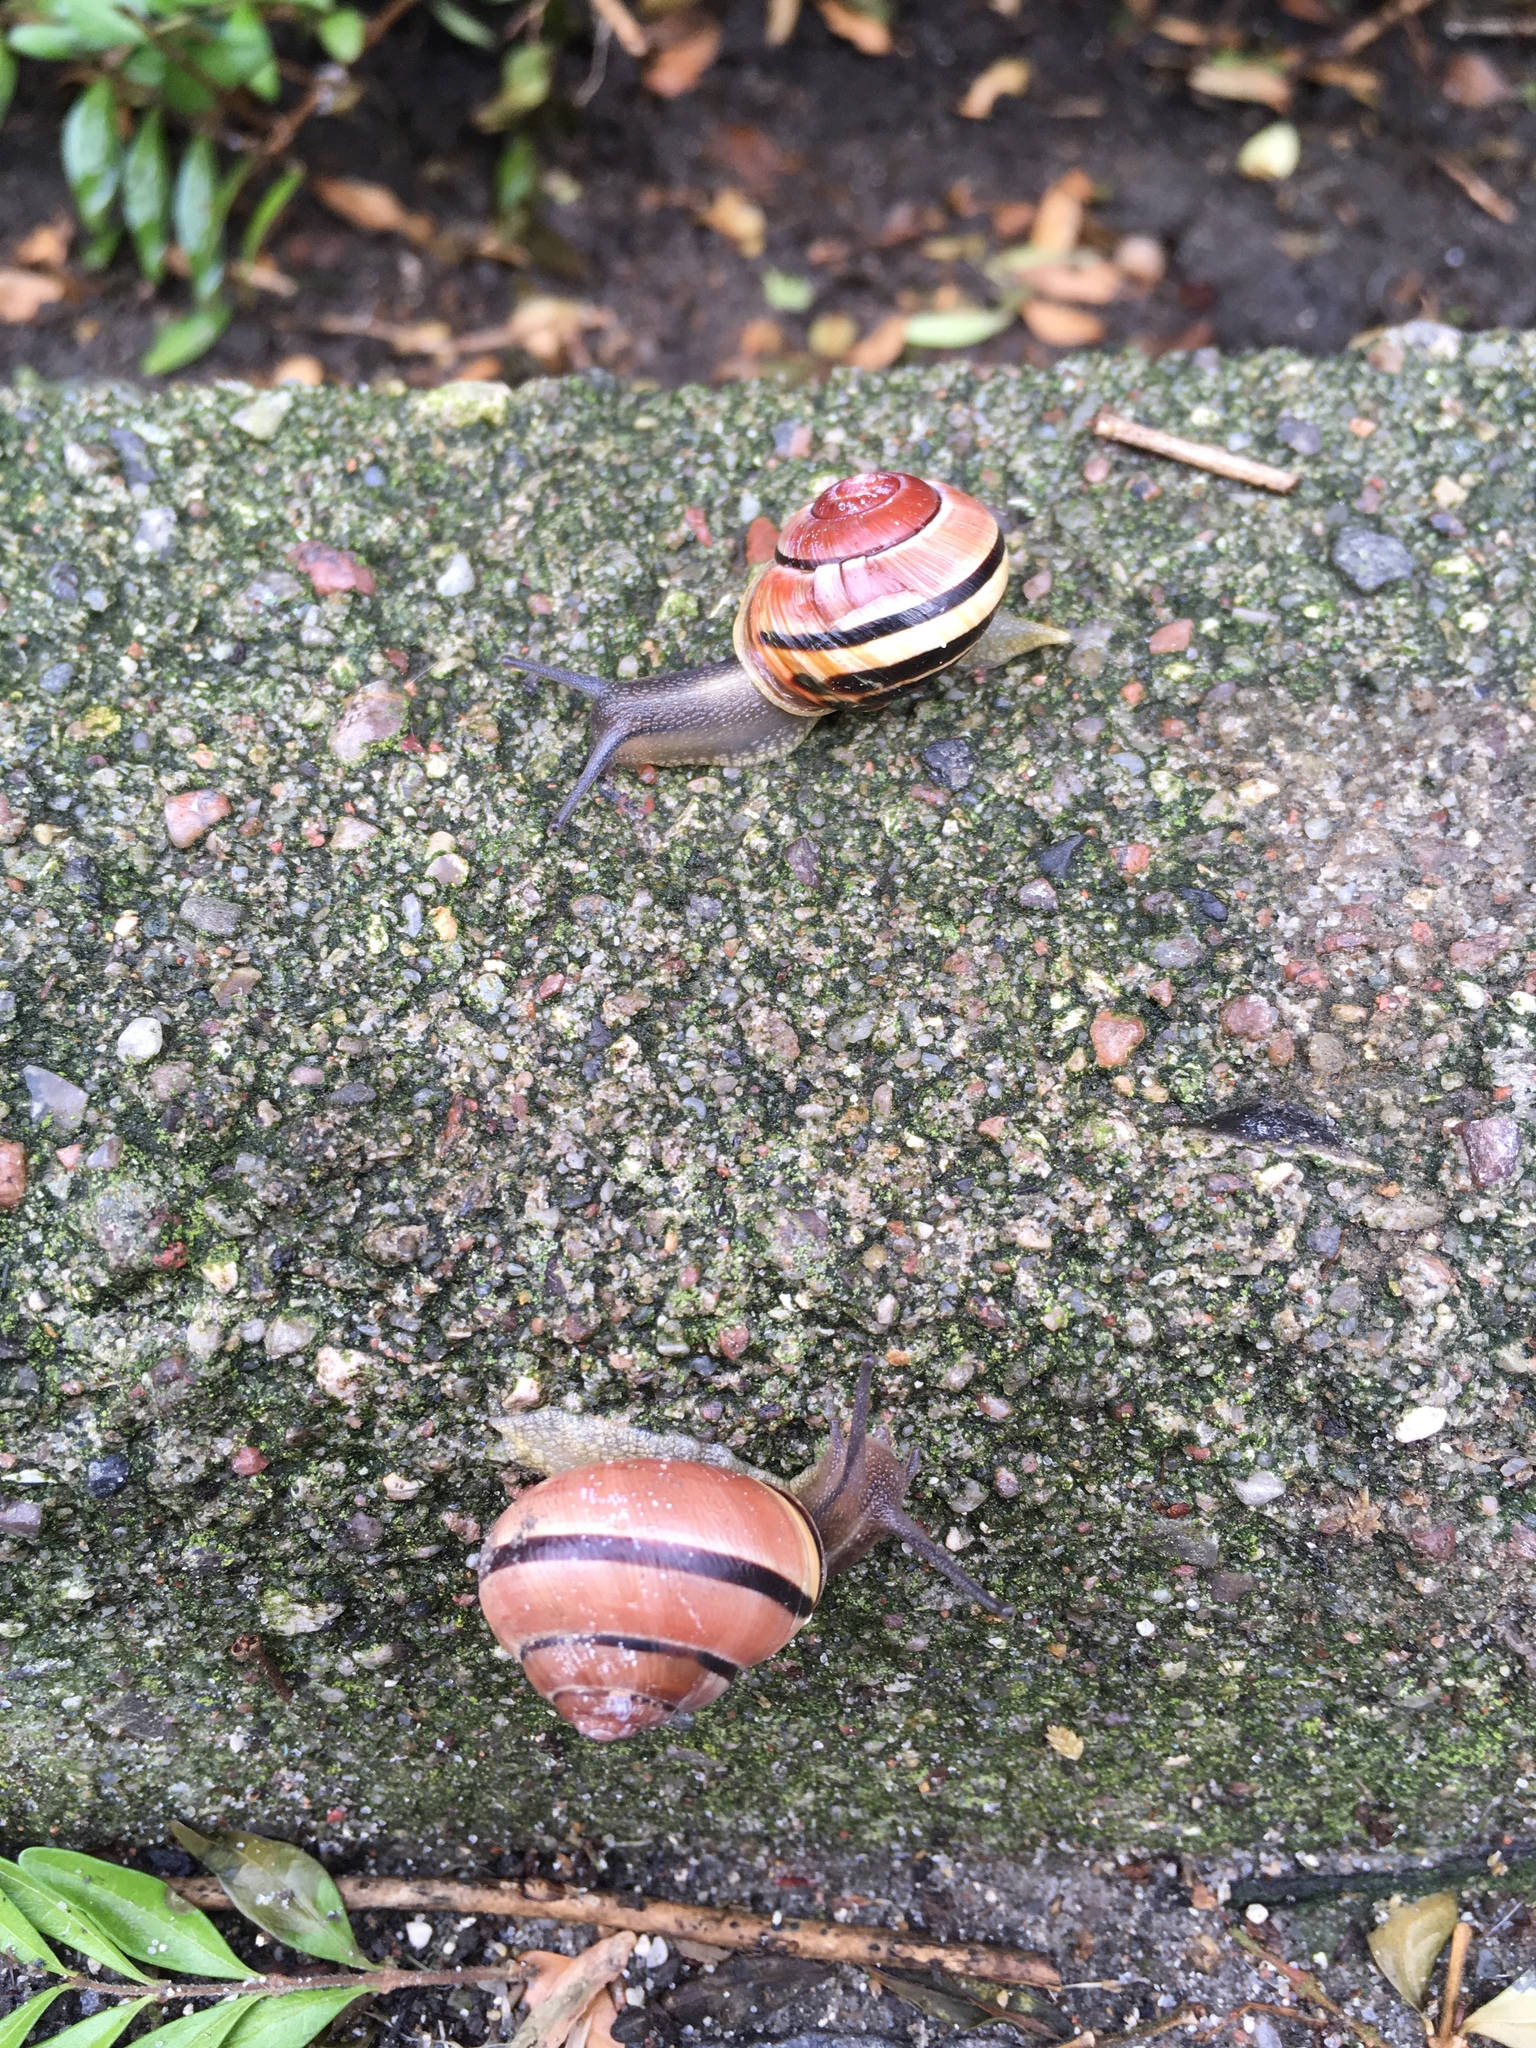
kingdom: Animalia
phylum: Mollusca
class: Gastropoda
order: Stylommatophora
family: Helicidae
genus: Cepaea
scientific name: Cepaea nemoralis
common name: Grovesnail
